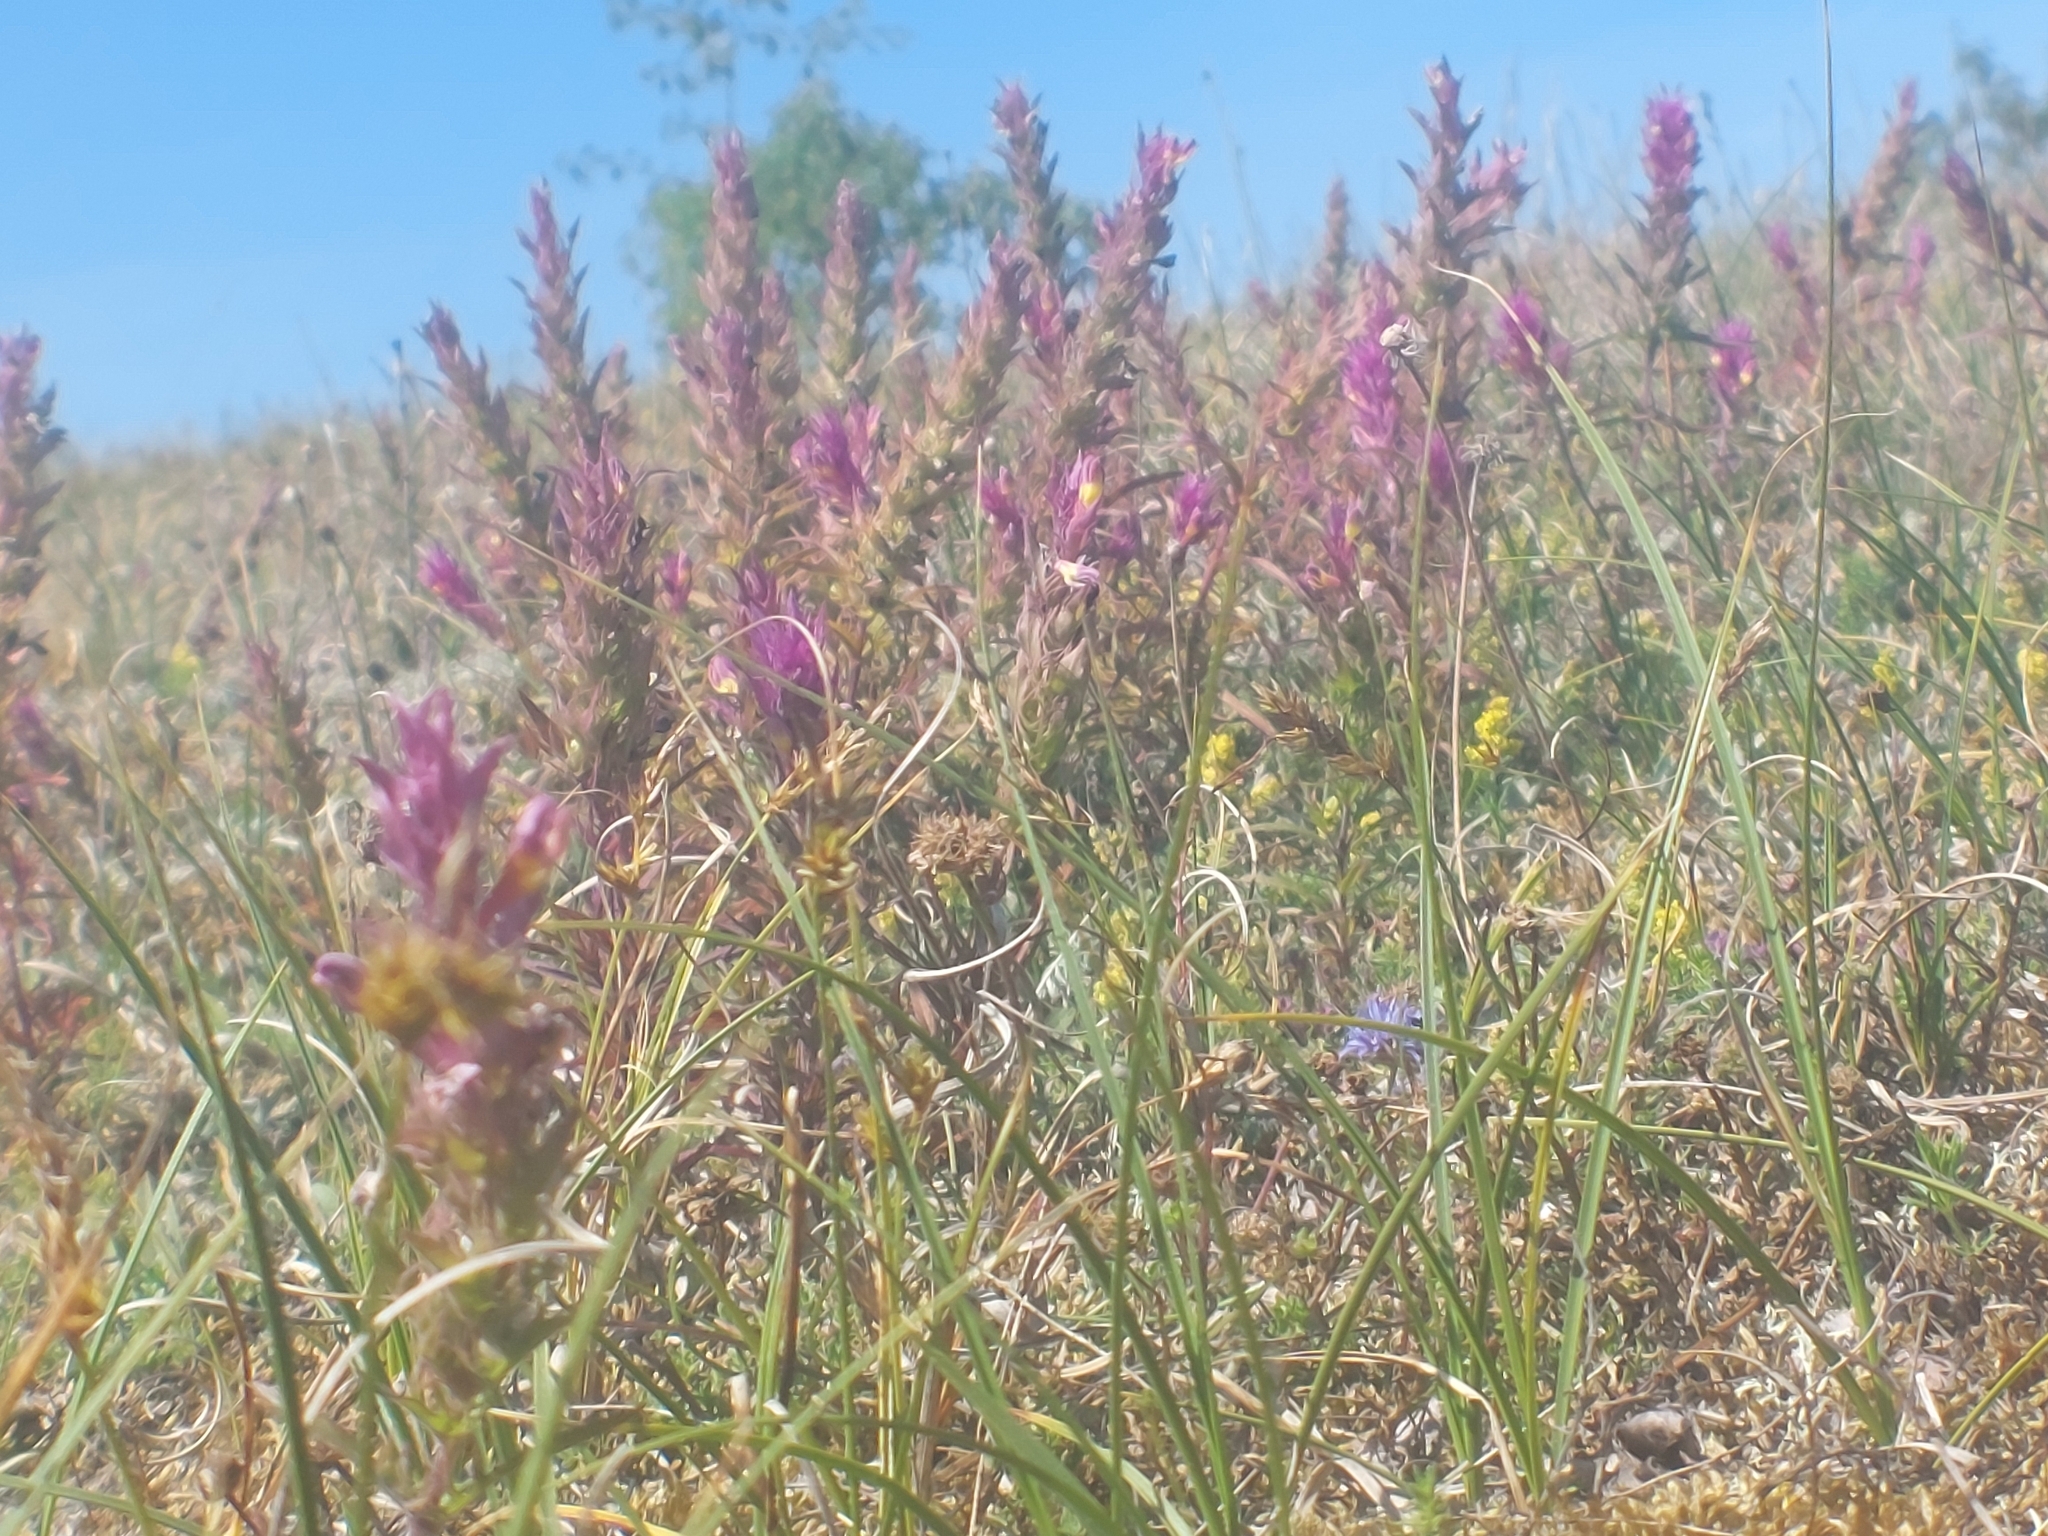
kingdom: Plantae
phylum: Tracheophyta
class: Magnoliopsida
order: Lamiales
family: Orobanchaceae
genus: Melampyrum
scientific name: Melampyrum arvense
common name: Field cow-wheat
